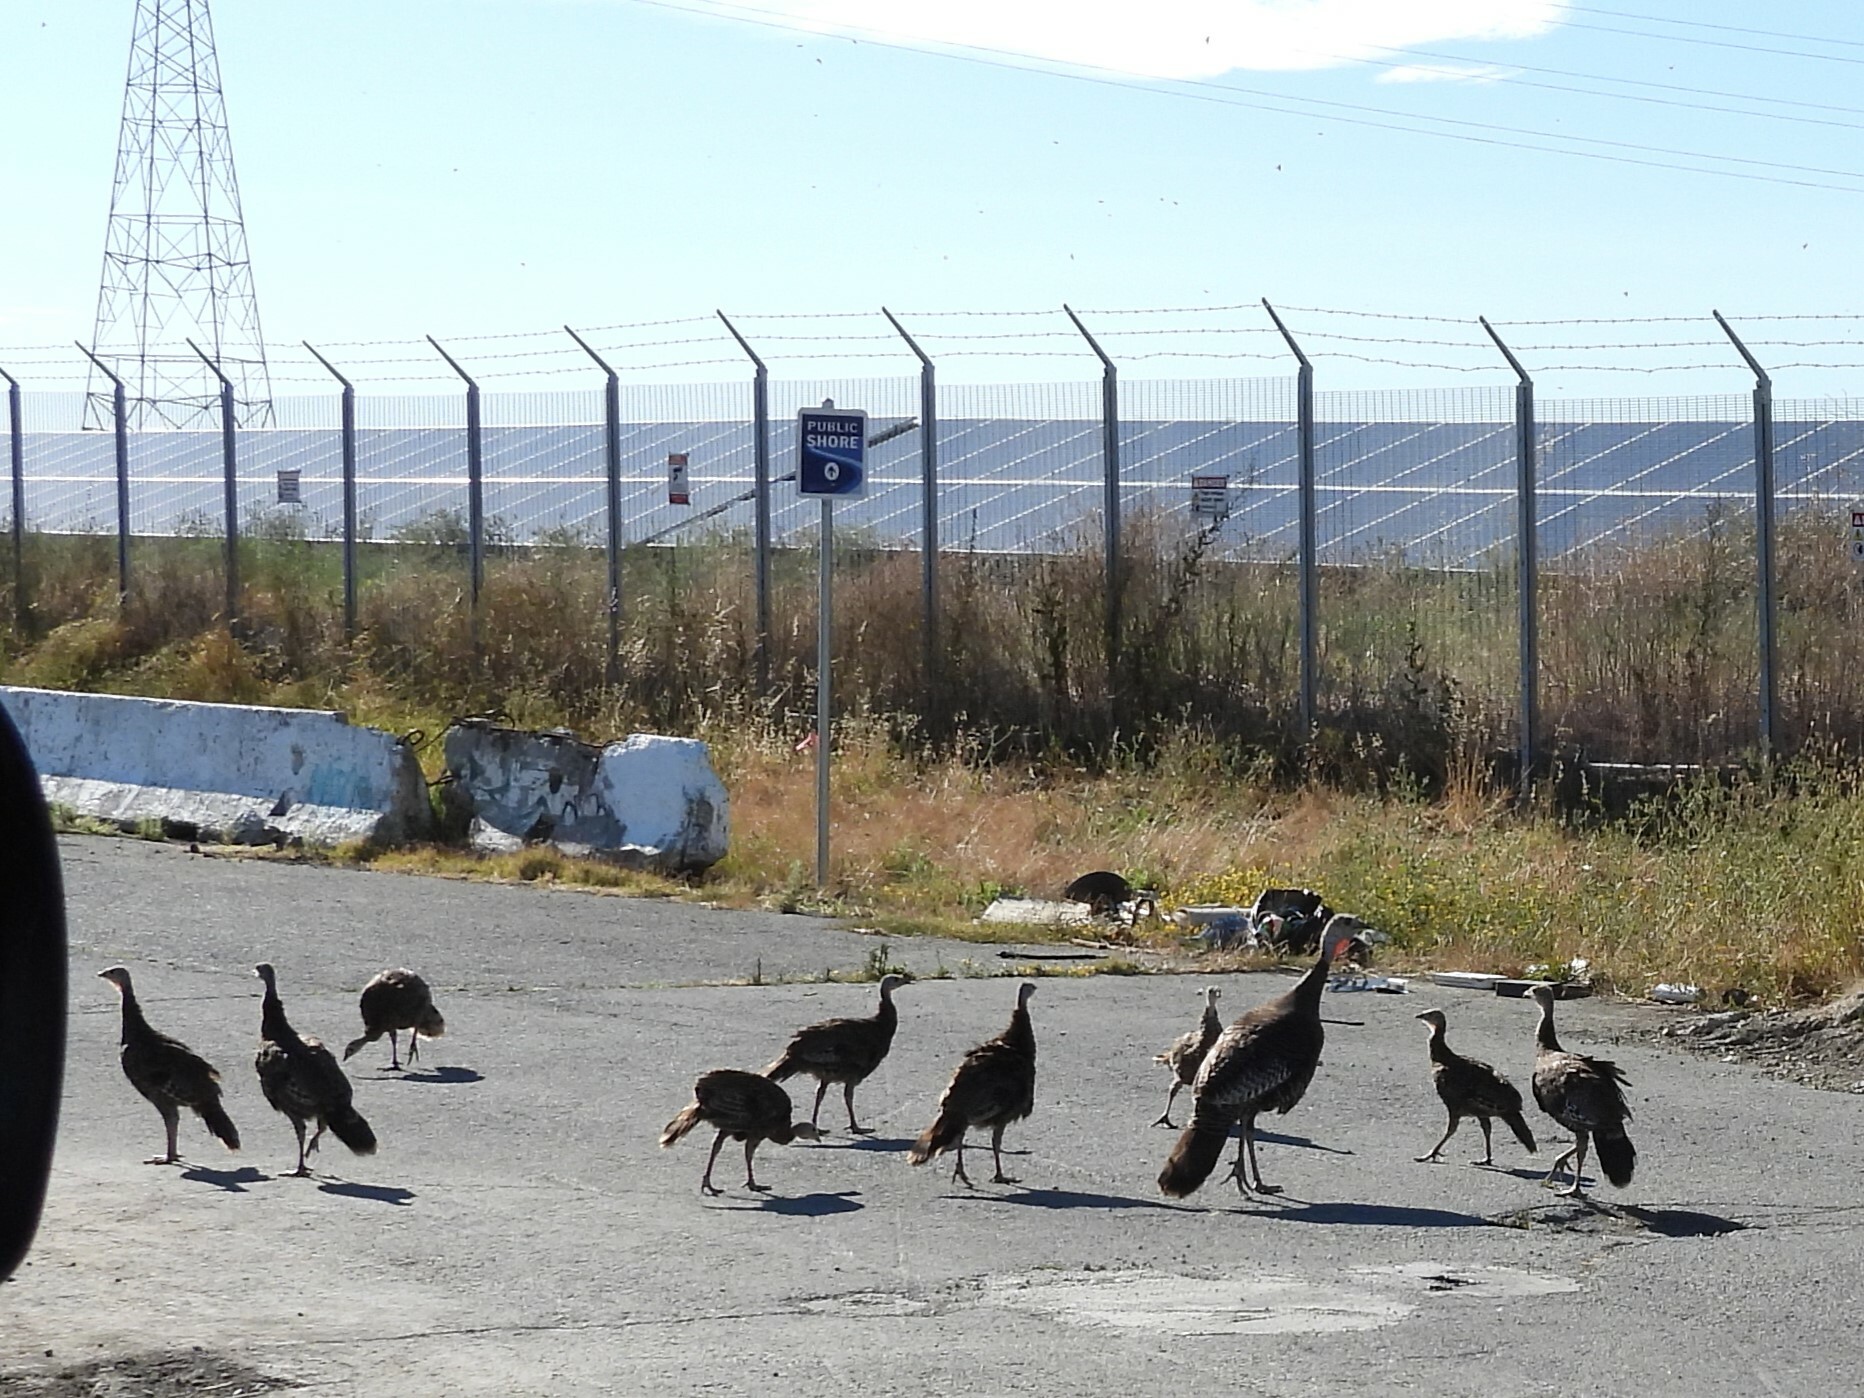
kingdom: Animalia
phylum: Chordata
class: Aves
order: Galliformes
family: Phasianidae
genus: Meleagris
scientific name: Meleagris gallopavo
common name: Wild turkey
